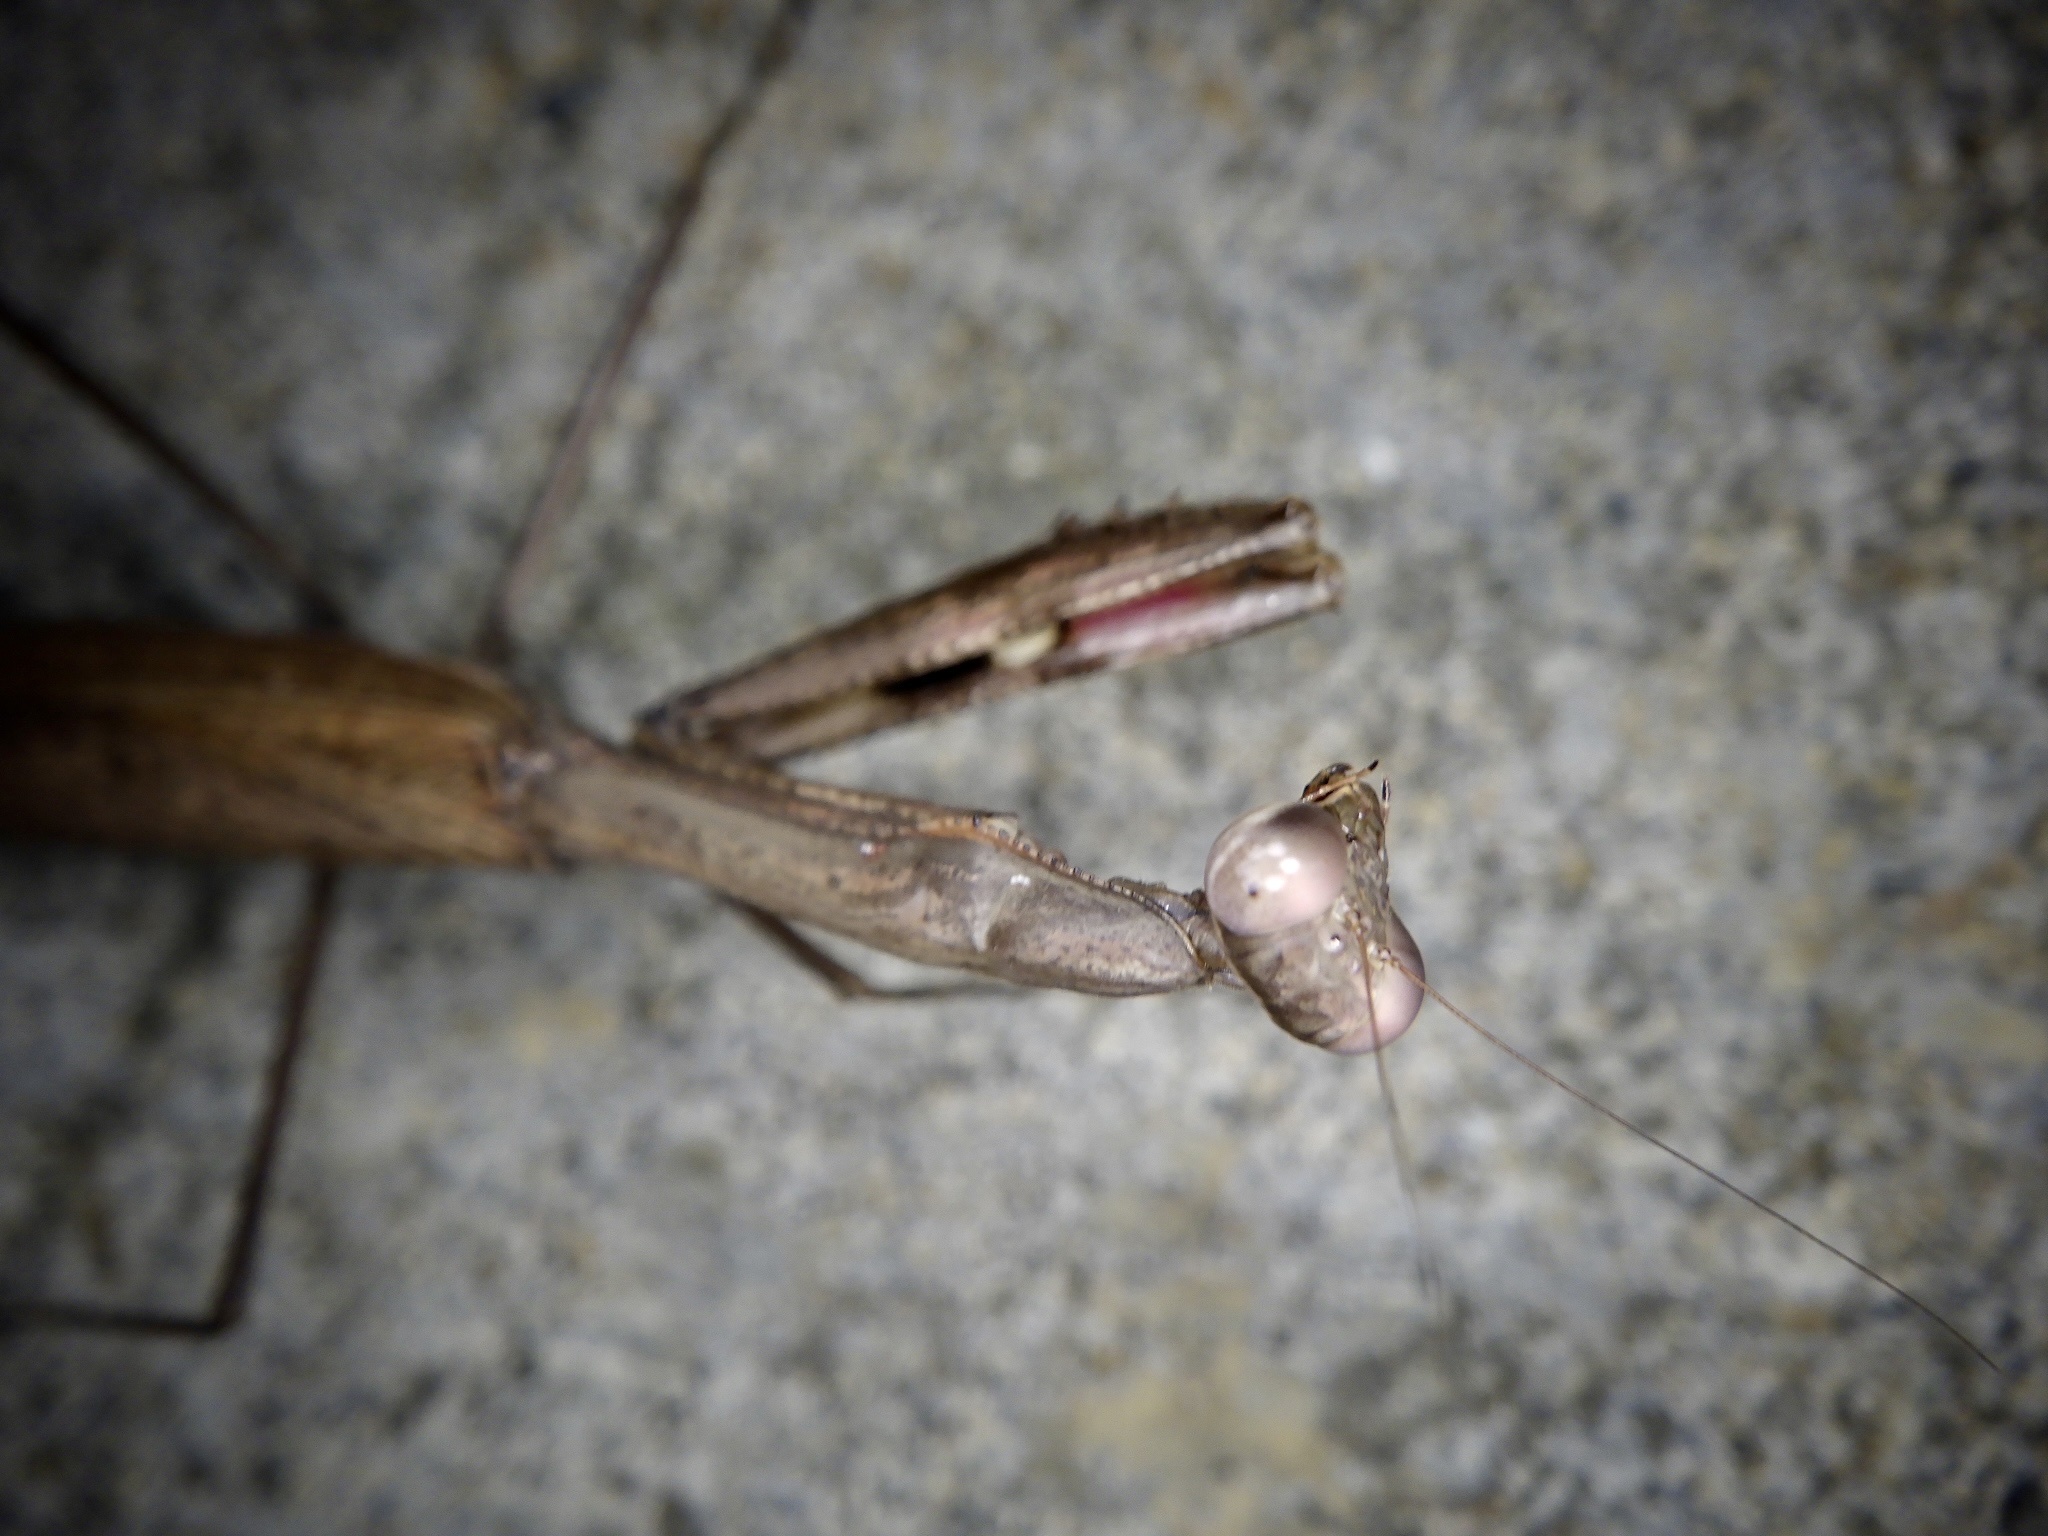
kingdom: Animalia
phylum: Arthropoda
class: Insecta
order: Mantodea
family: Mantidae
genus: Statilia
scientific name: Statilia maculata
